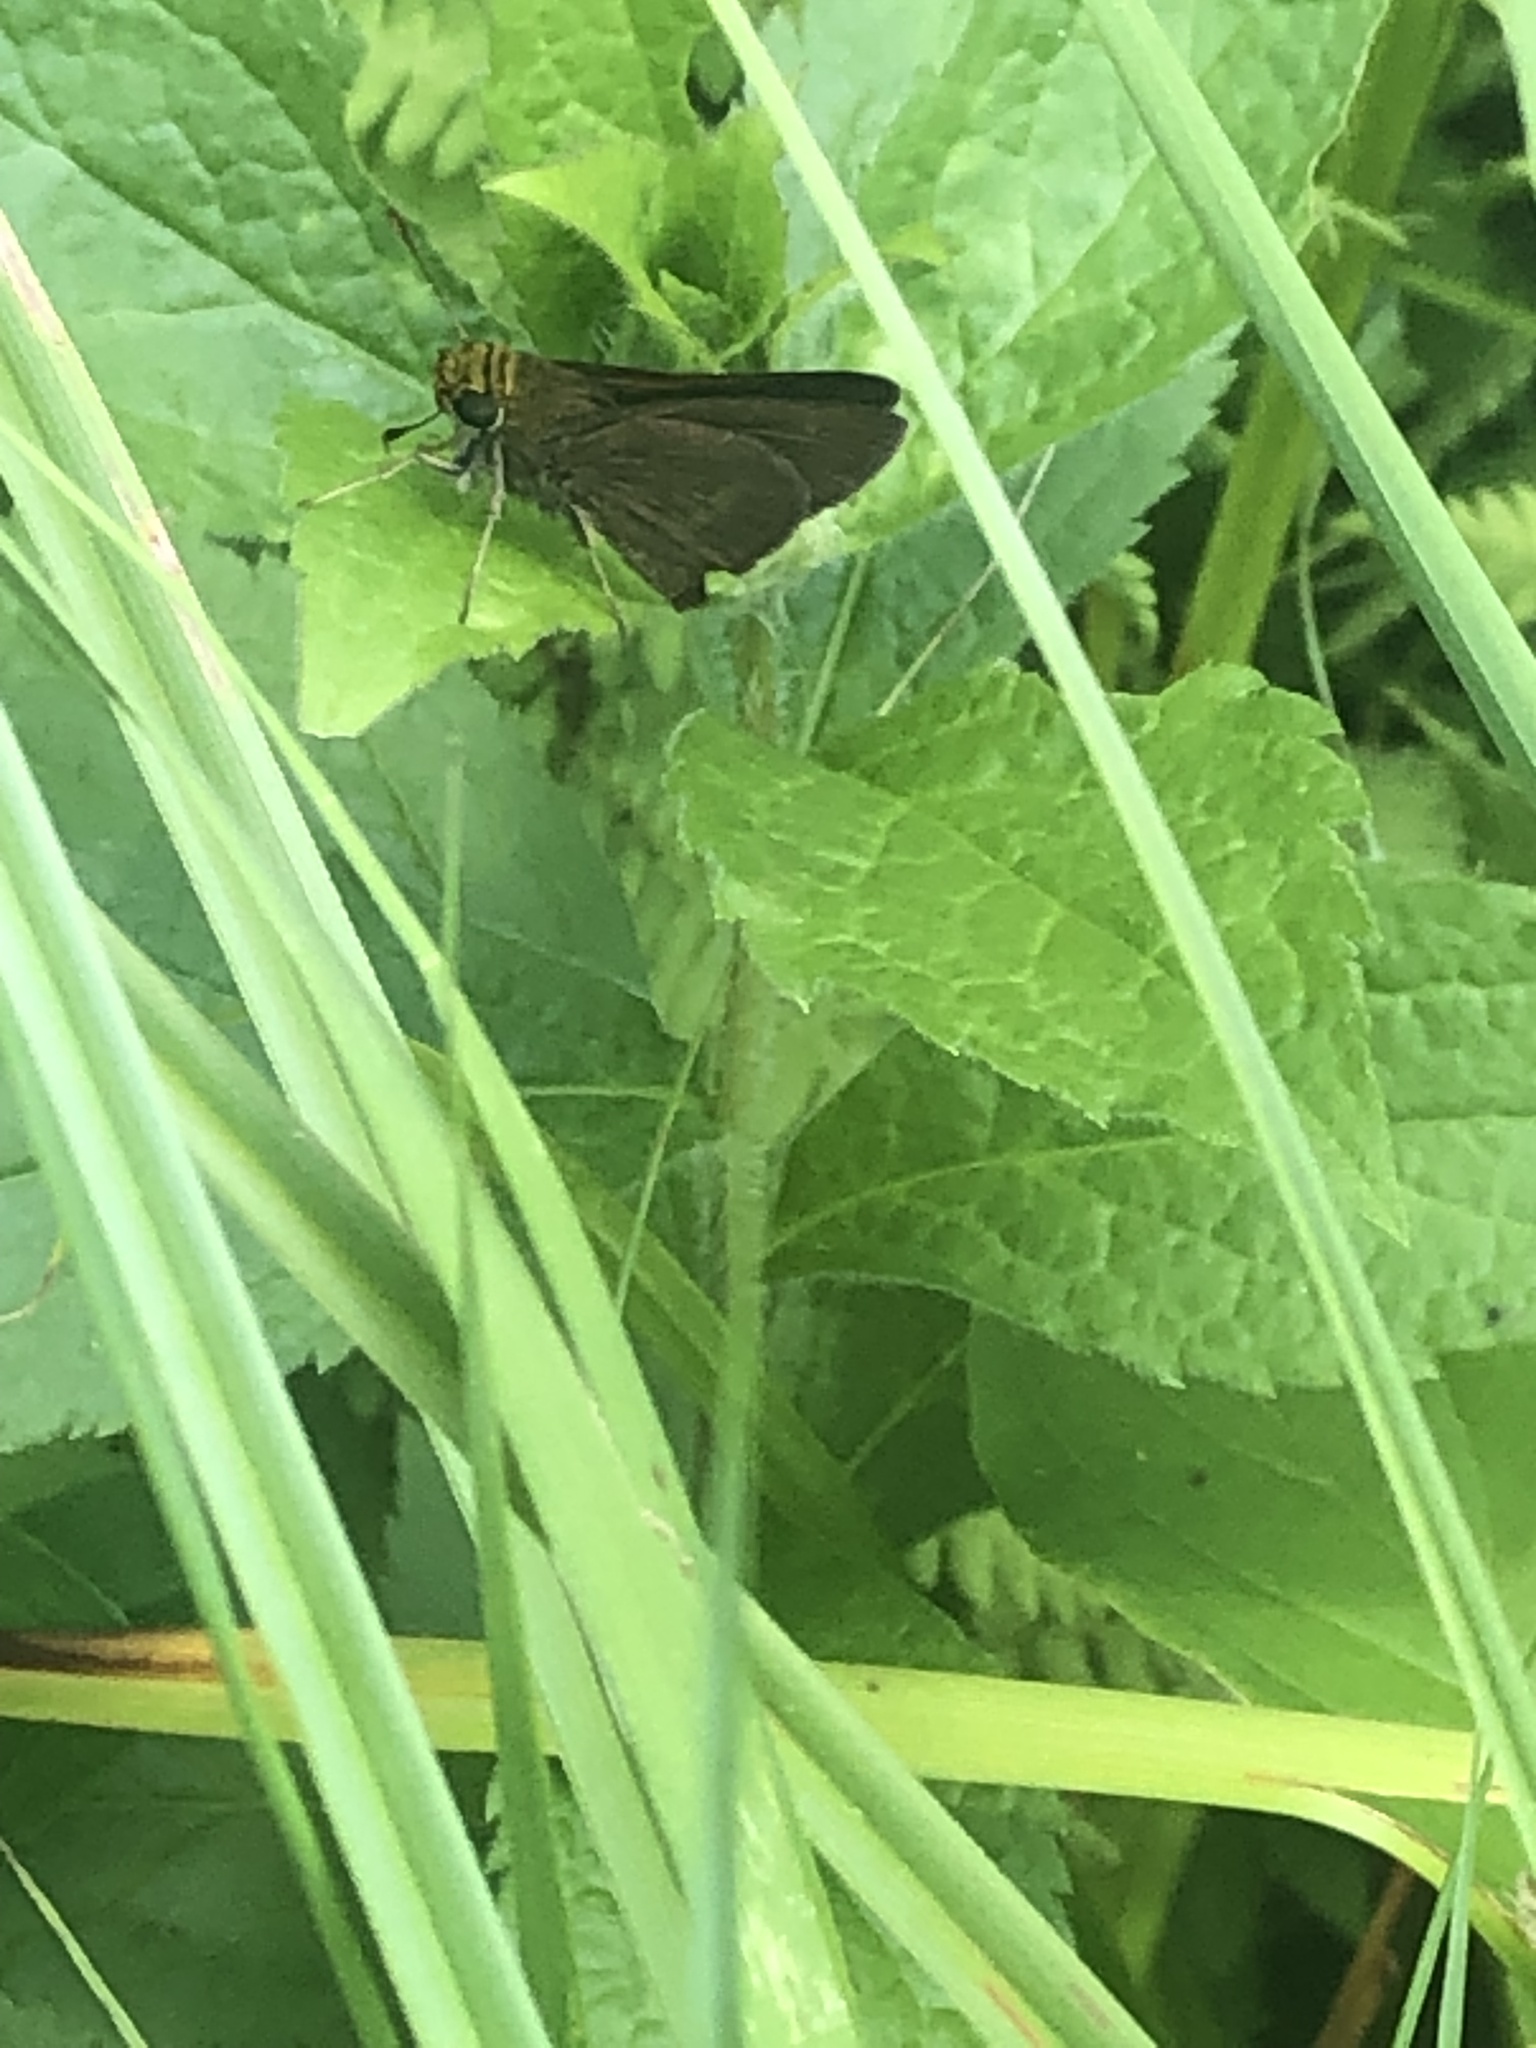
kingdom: Animalia
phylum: Arthropoda
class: Insecta
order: Lepidoptera
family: Hesperiidae
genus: Euphyes
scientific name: Euphyes vestris
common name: Dun skipper
